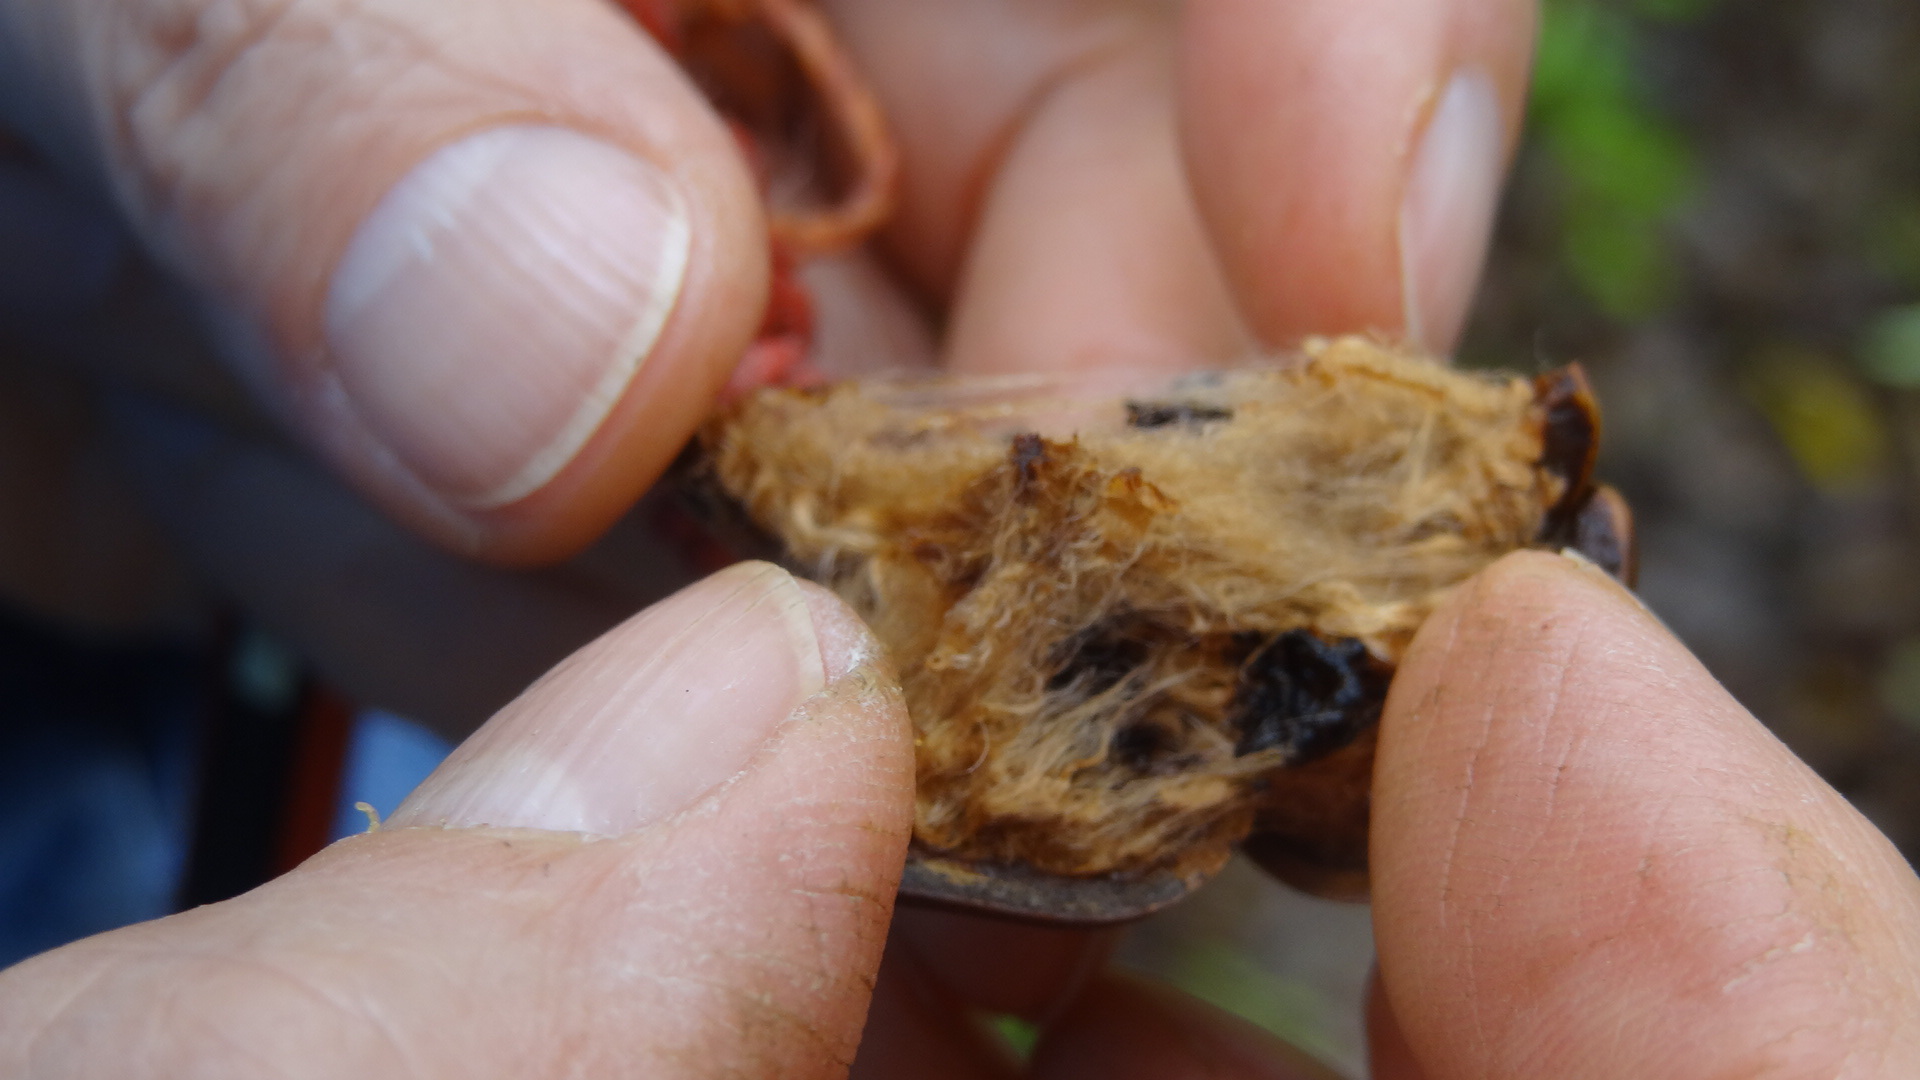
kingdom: Plantae
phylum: Tracheophyta
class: Magnoliopsida
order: Malvales
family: Cochlospermaceae
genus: Cochlospermum
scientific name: Cochlospermum vitifolium
